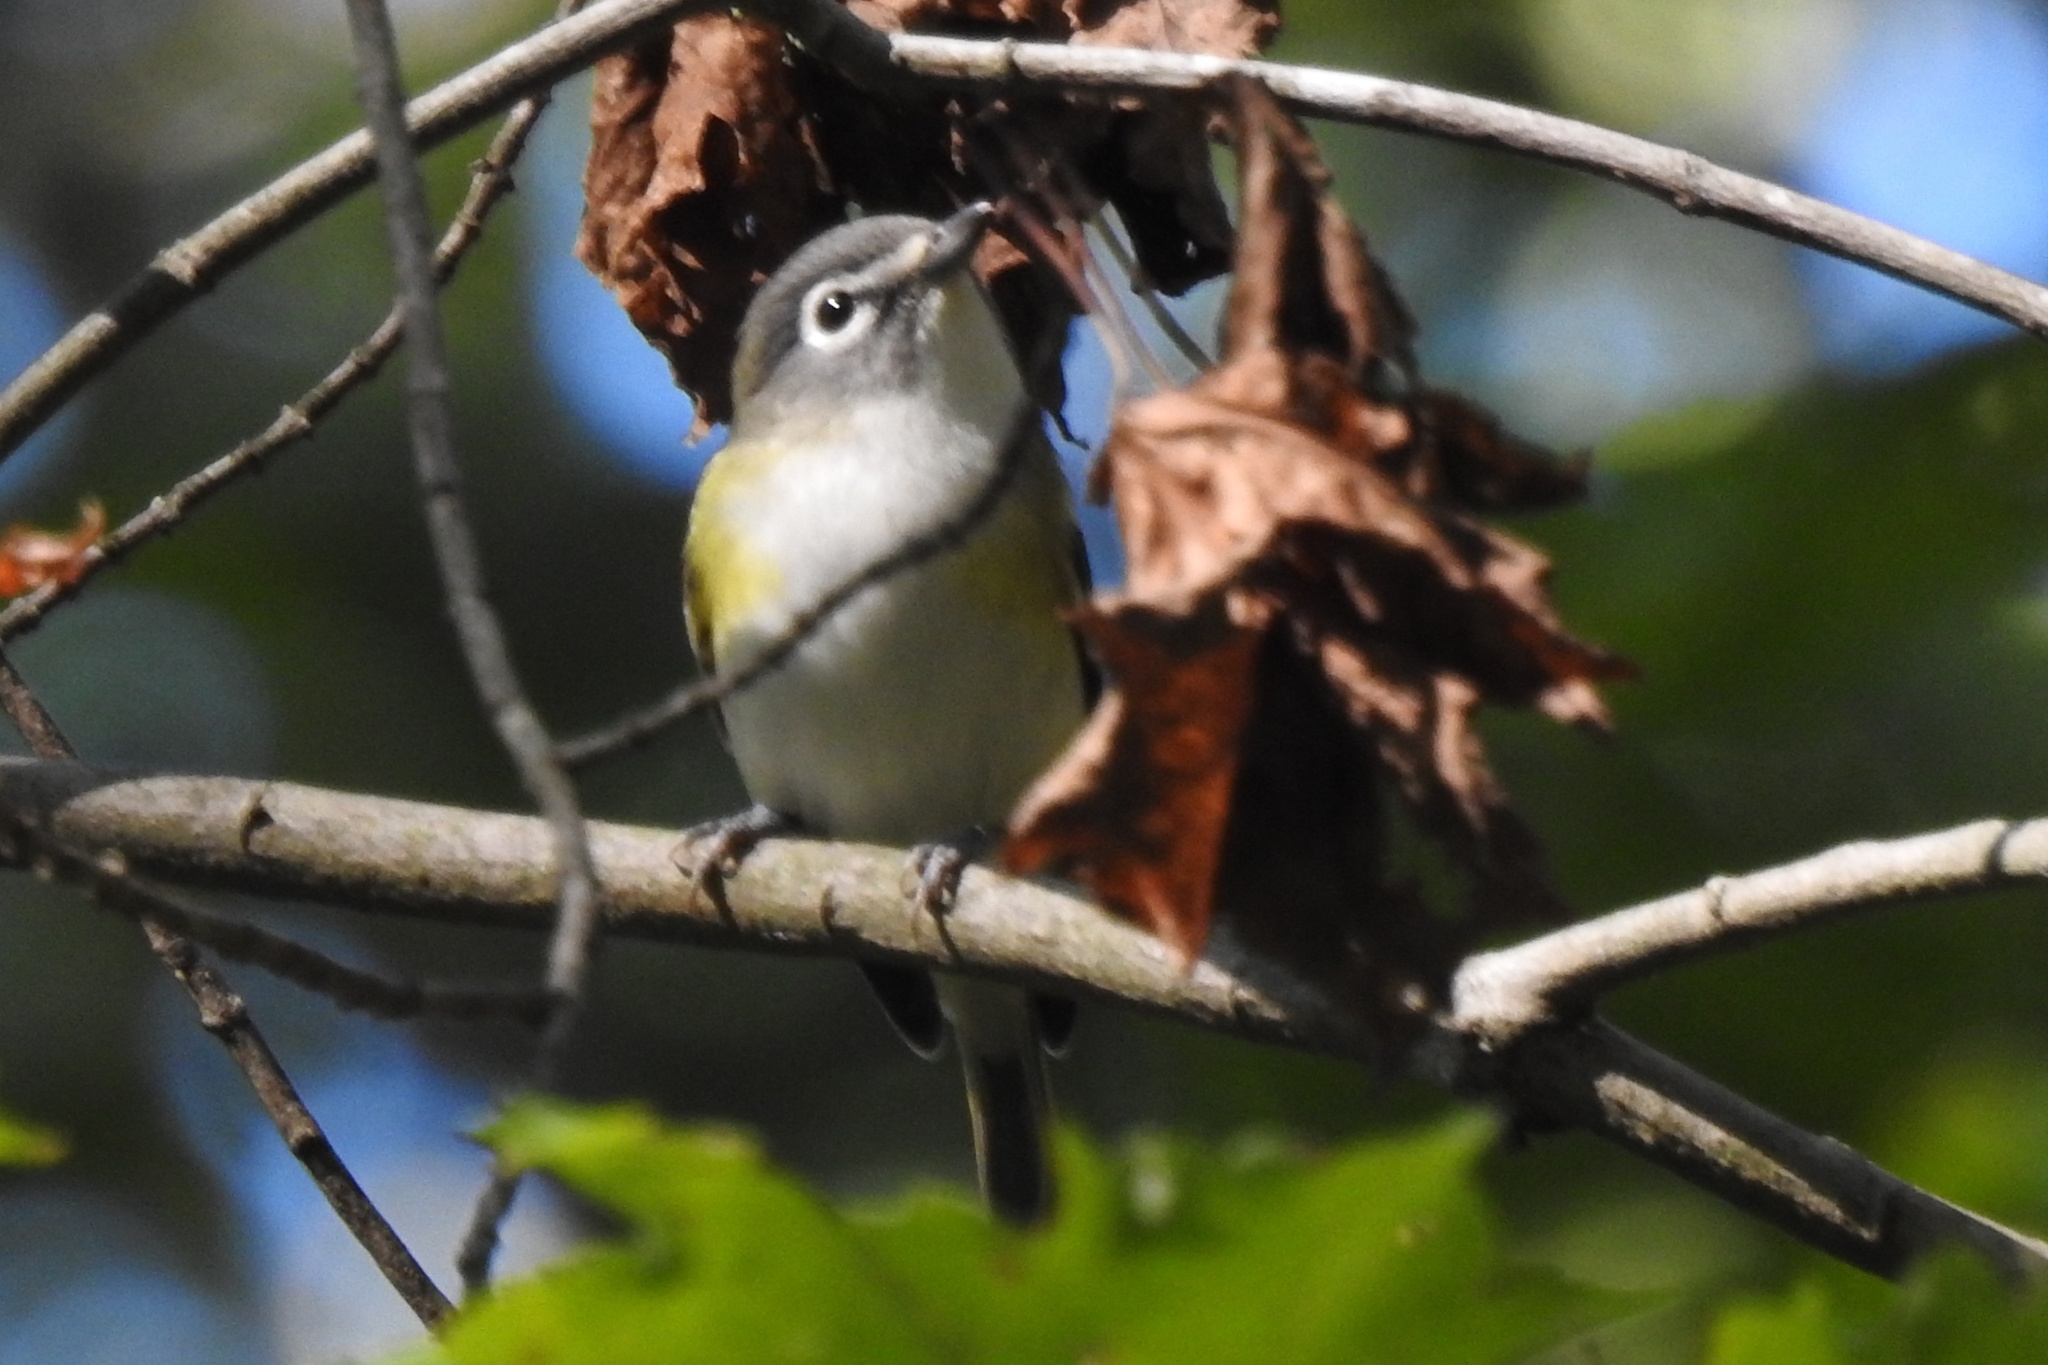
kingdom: Animalia
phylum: Chordata
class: Aves
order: Passeriformes
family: Vireonidae
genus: Vireo
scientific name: Vireo solitarius
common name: Blue-headed vireo
